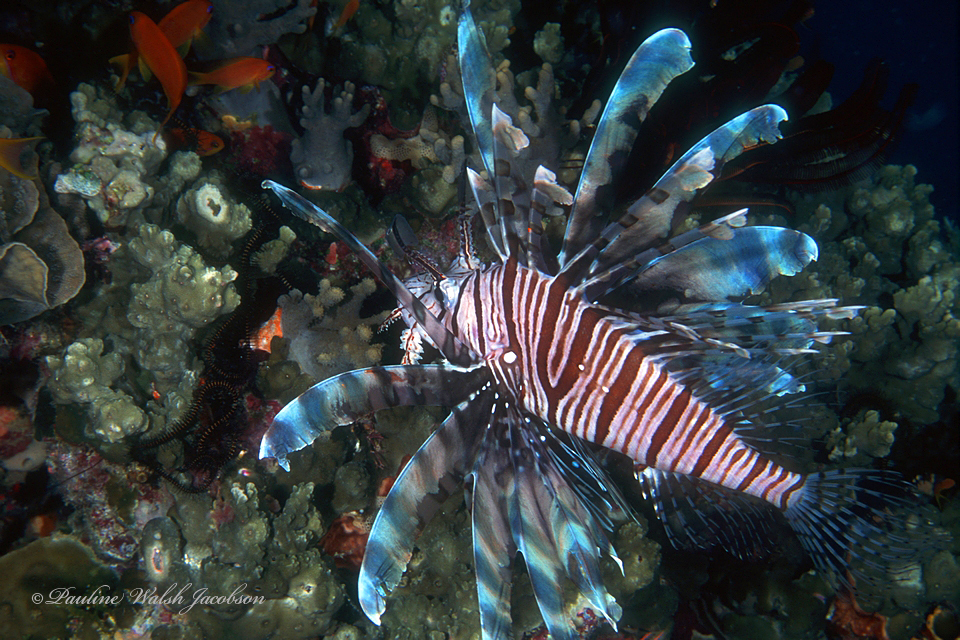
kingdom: Animalia
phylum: Chordata
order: Scorpaeniformes
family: Scorpaenidae
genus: Pterois
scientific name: Pterois volitans
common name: Lionfish
